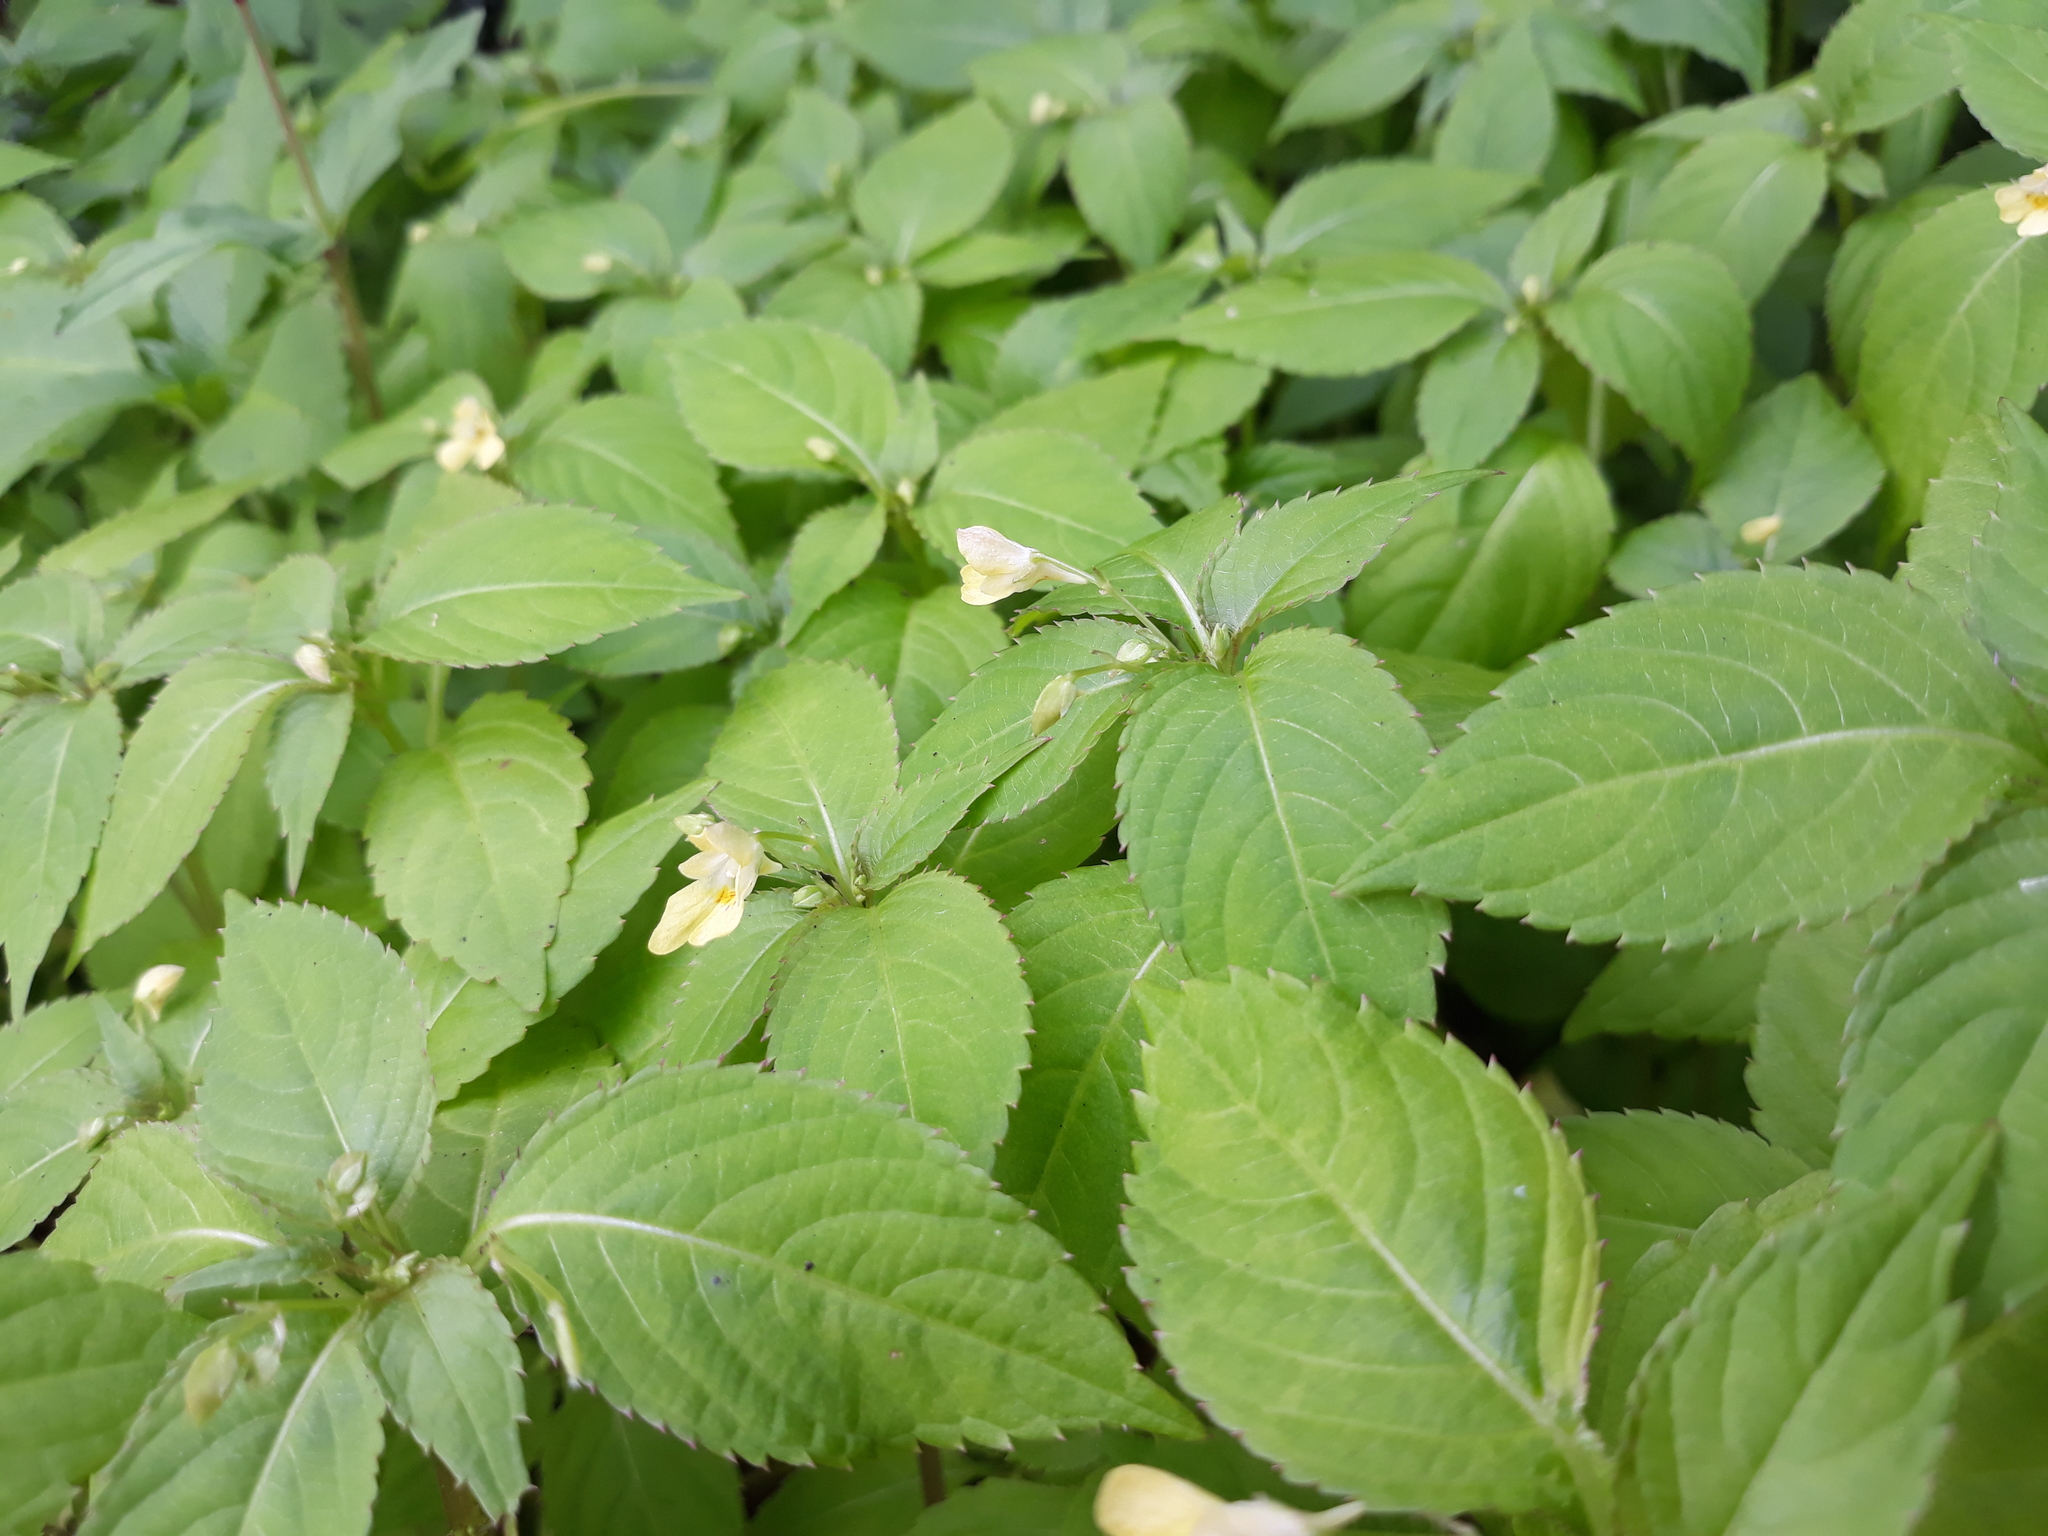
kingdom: Plantae
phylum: Tracheophyta
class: Magnoliopsida
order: Ericales
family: Balsaminaceae
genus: Impatiens
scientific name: Impatiens parviflora
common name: Small balsam
